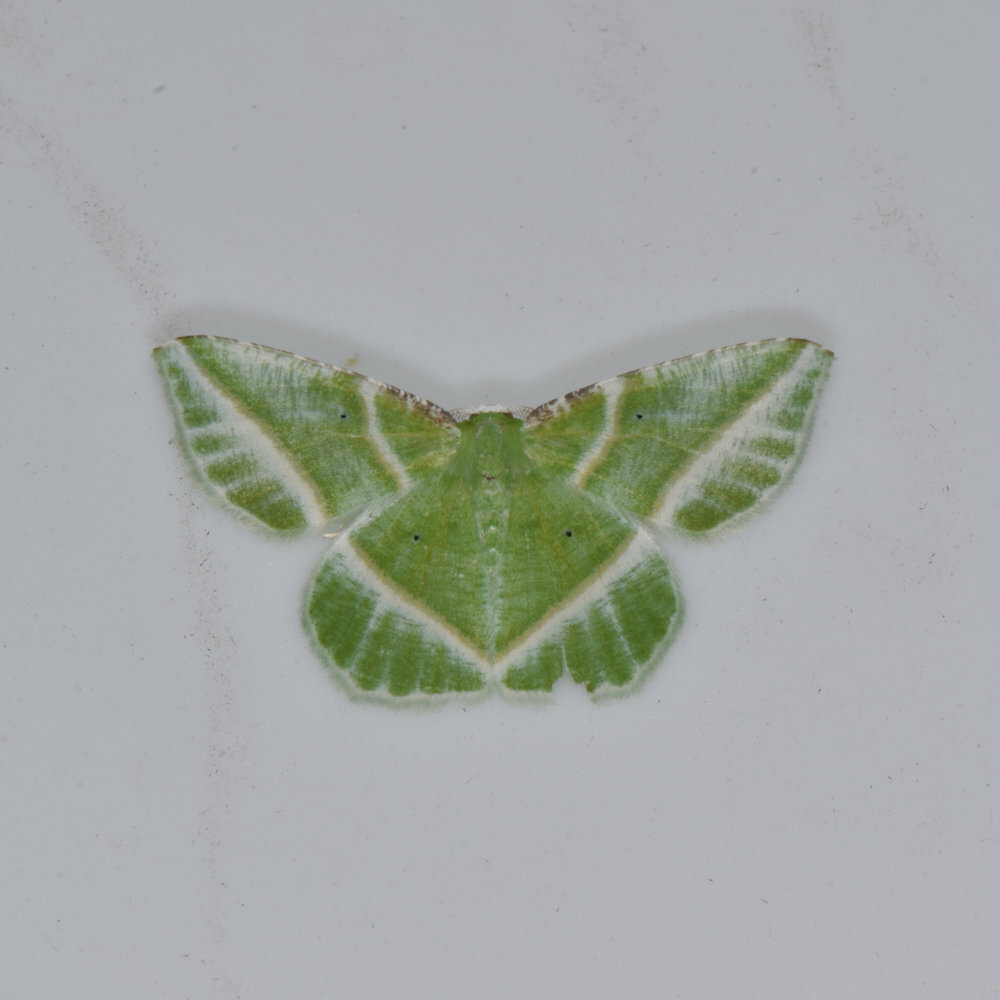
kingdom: Animalia
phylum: Arthropoda
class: Insecta
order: Lepidoptera
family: Geometridae
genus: Dichorda
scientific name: Dichorda iridaria
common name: Showy emerald
